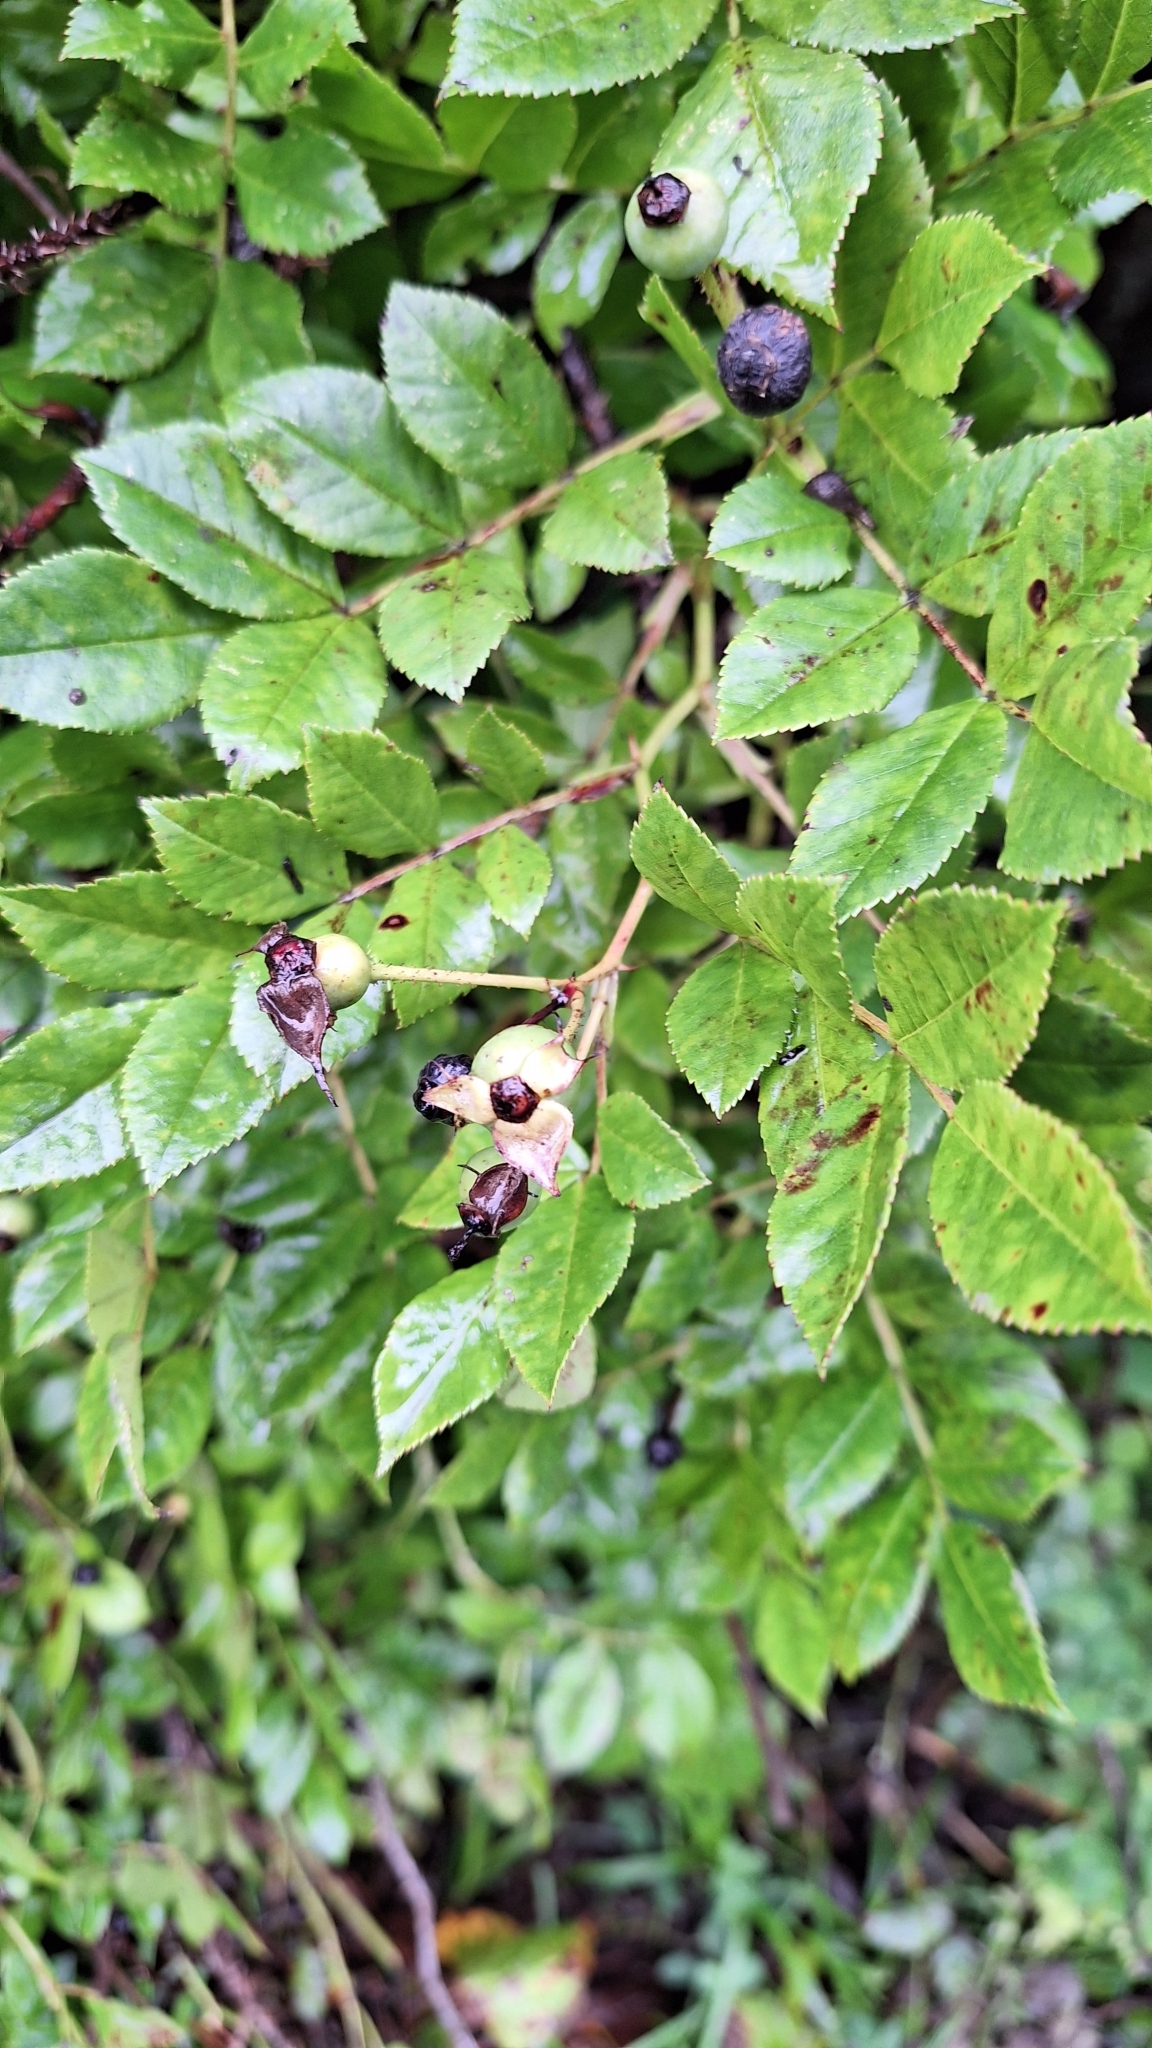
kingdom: Plantae
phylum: Tracheophyta
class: Magnoliopsida
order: Rosales
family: Rosaceae
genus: Rosa
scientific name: Rosa maximowicziana
